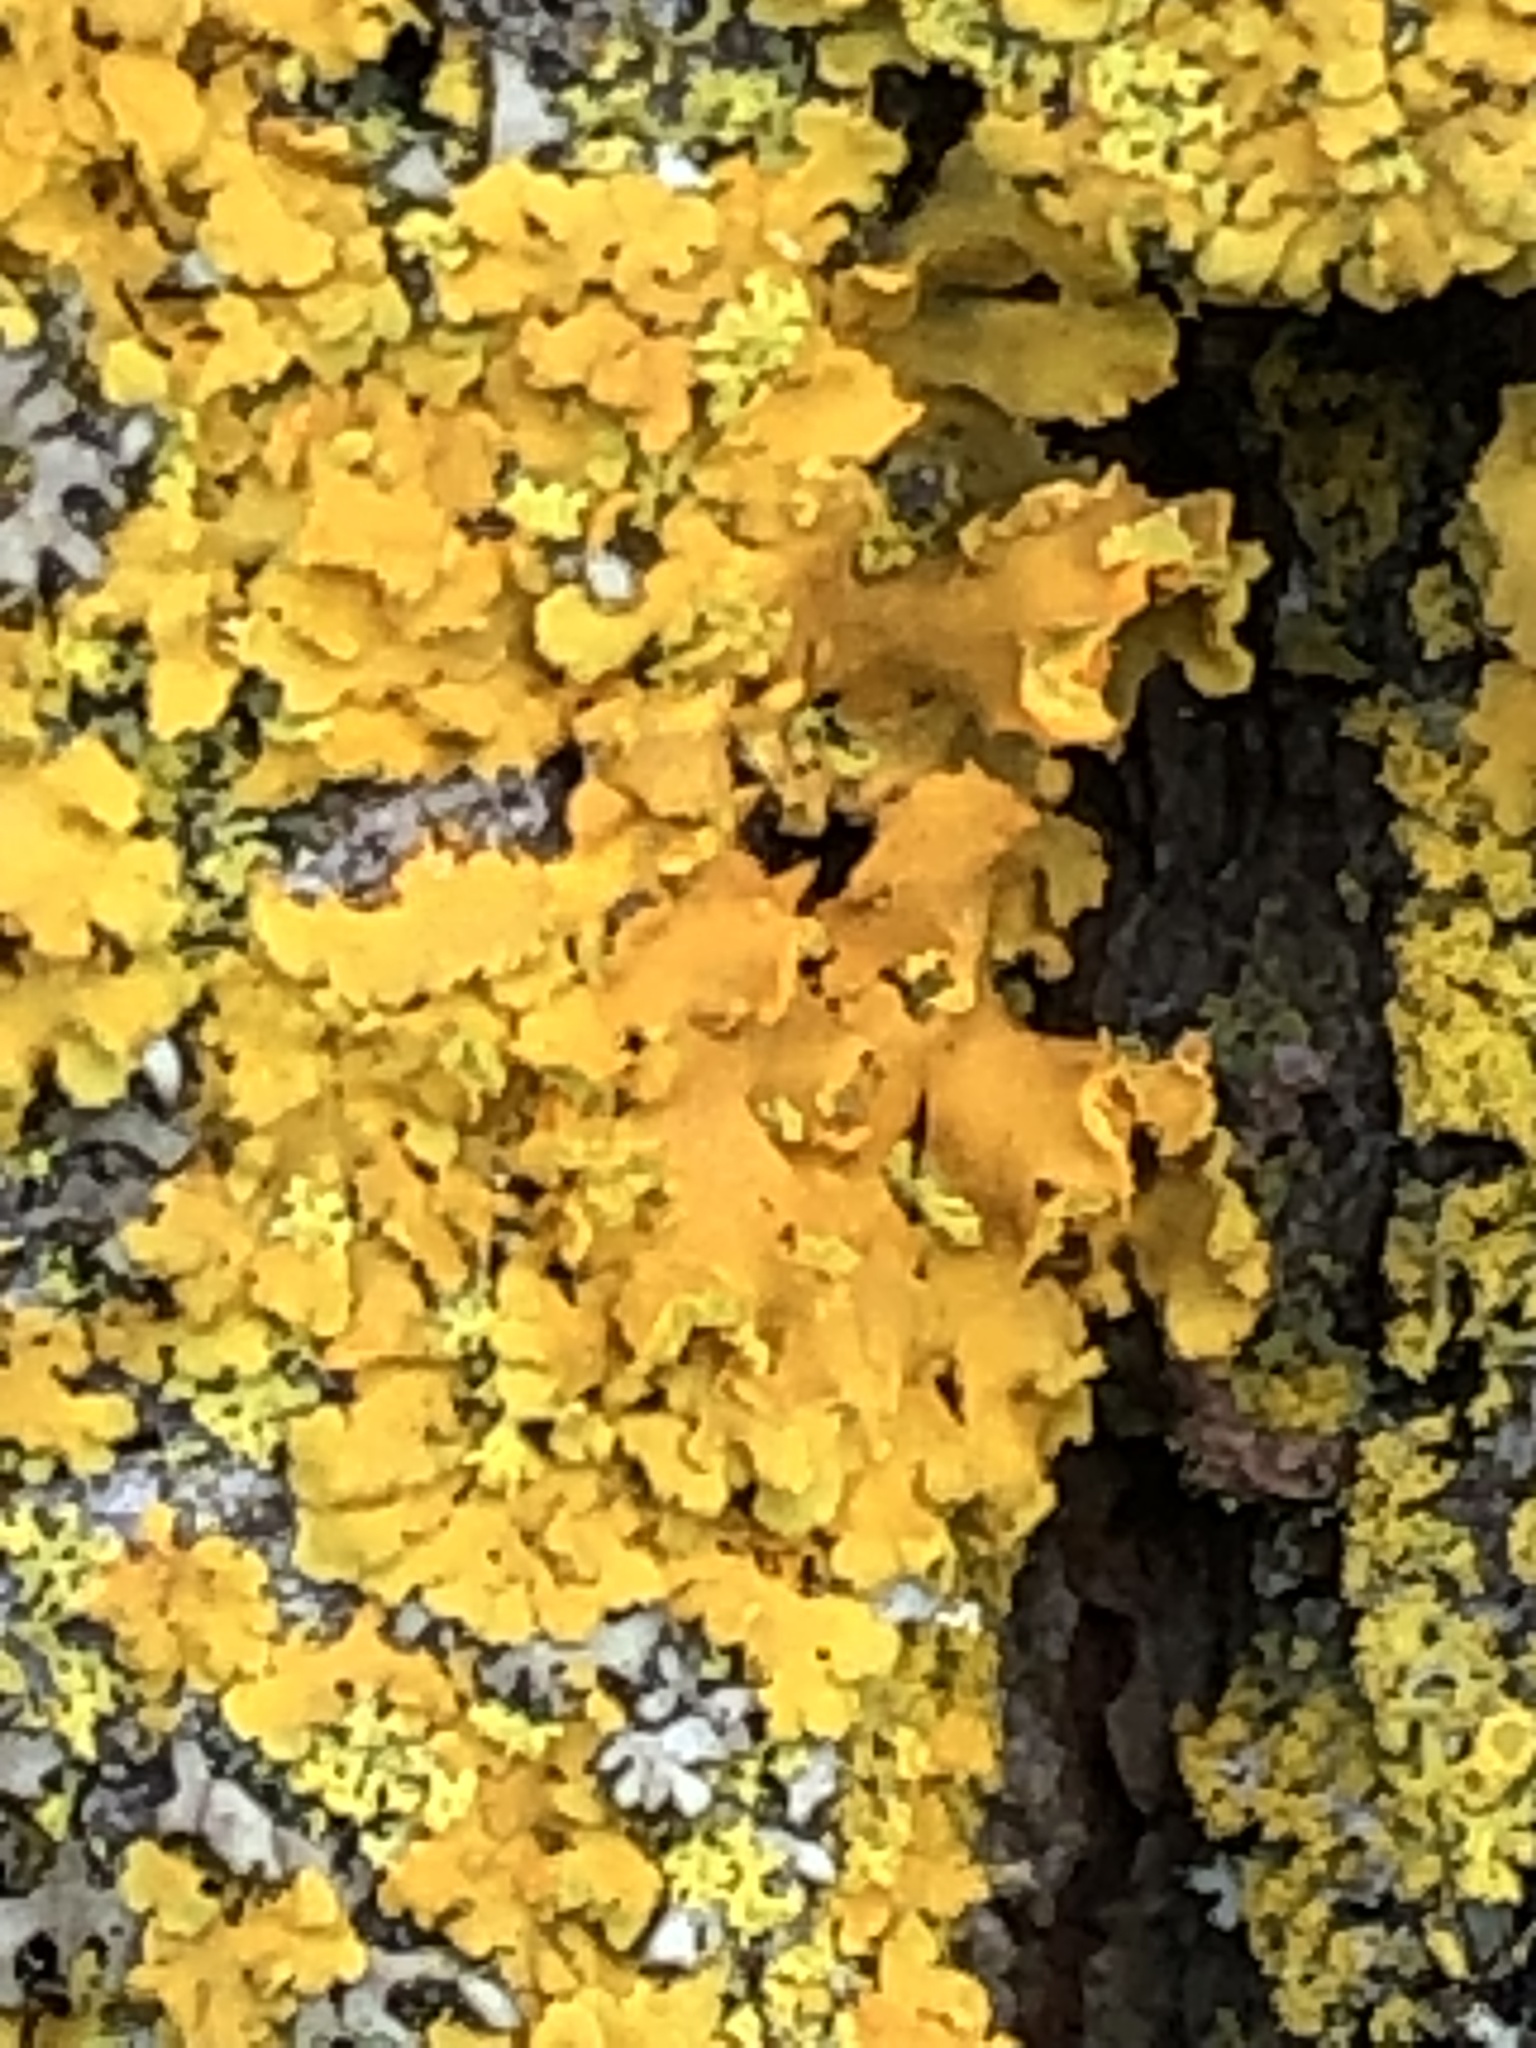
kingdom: Fungi
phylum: Ascomycota
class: Lecanoromycetes
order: Teloschistales
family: Teloschistaceae
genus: Oxneria
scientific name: Oxneria fallax
